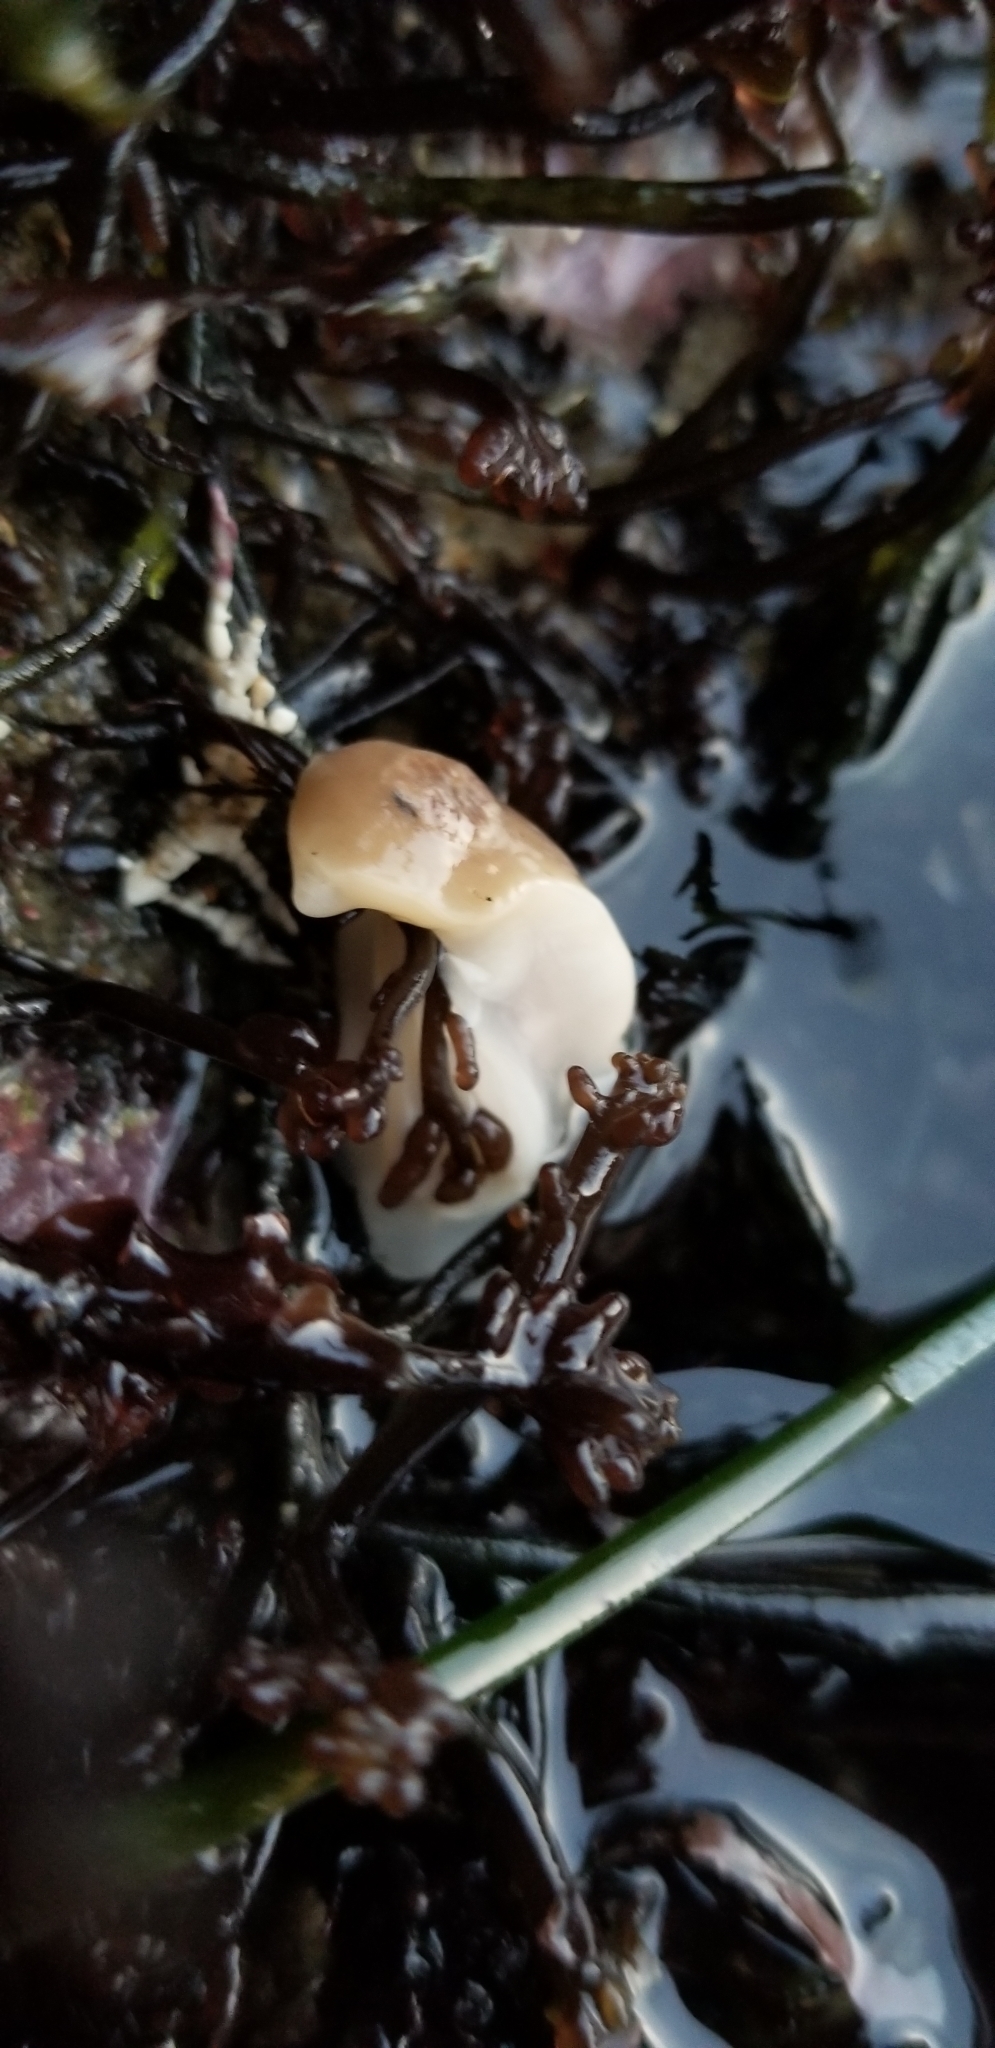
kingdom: Animalia
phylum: Mollusca
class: Gastropoda
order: Nudibranchia
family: Discodorididae
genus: Diaulula
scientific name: Diaulula sandiegensis
